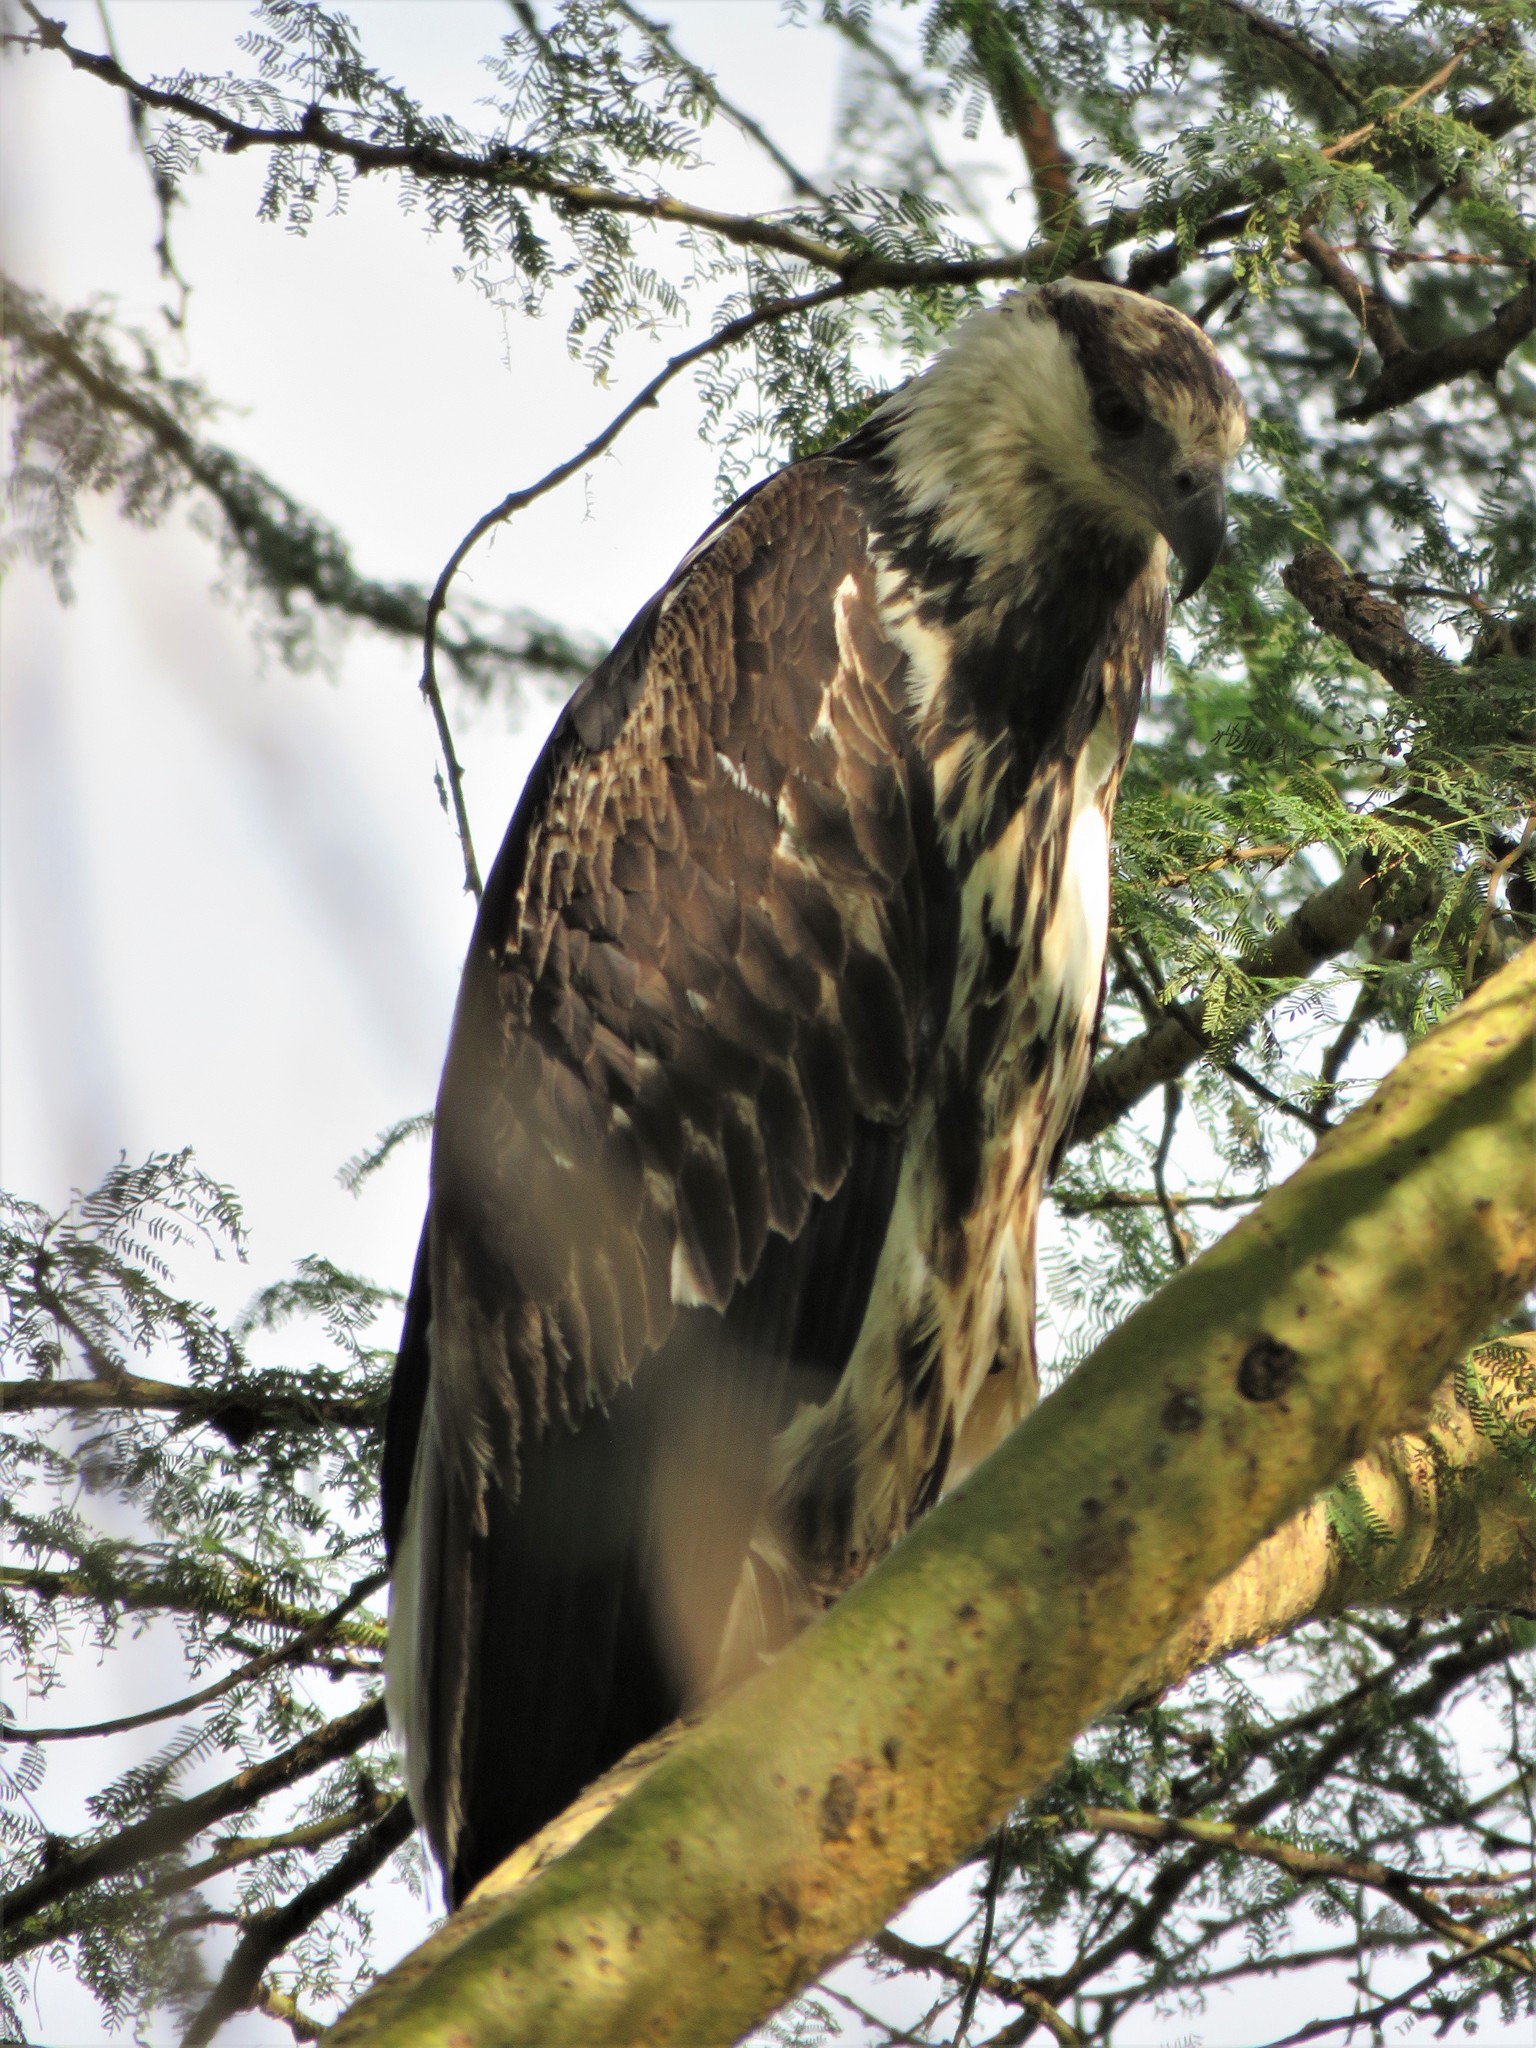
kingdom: Animalia
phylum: Chordata
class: Aves
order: Accipitriformes
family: Accipitridae
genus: Haliaeetus
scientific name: Haliaeetus vocifer
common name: African fish eagle
